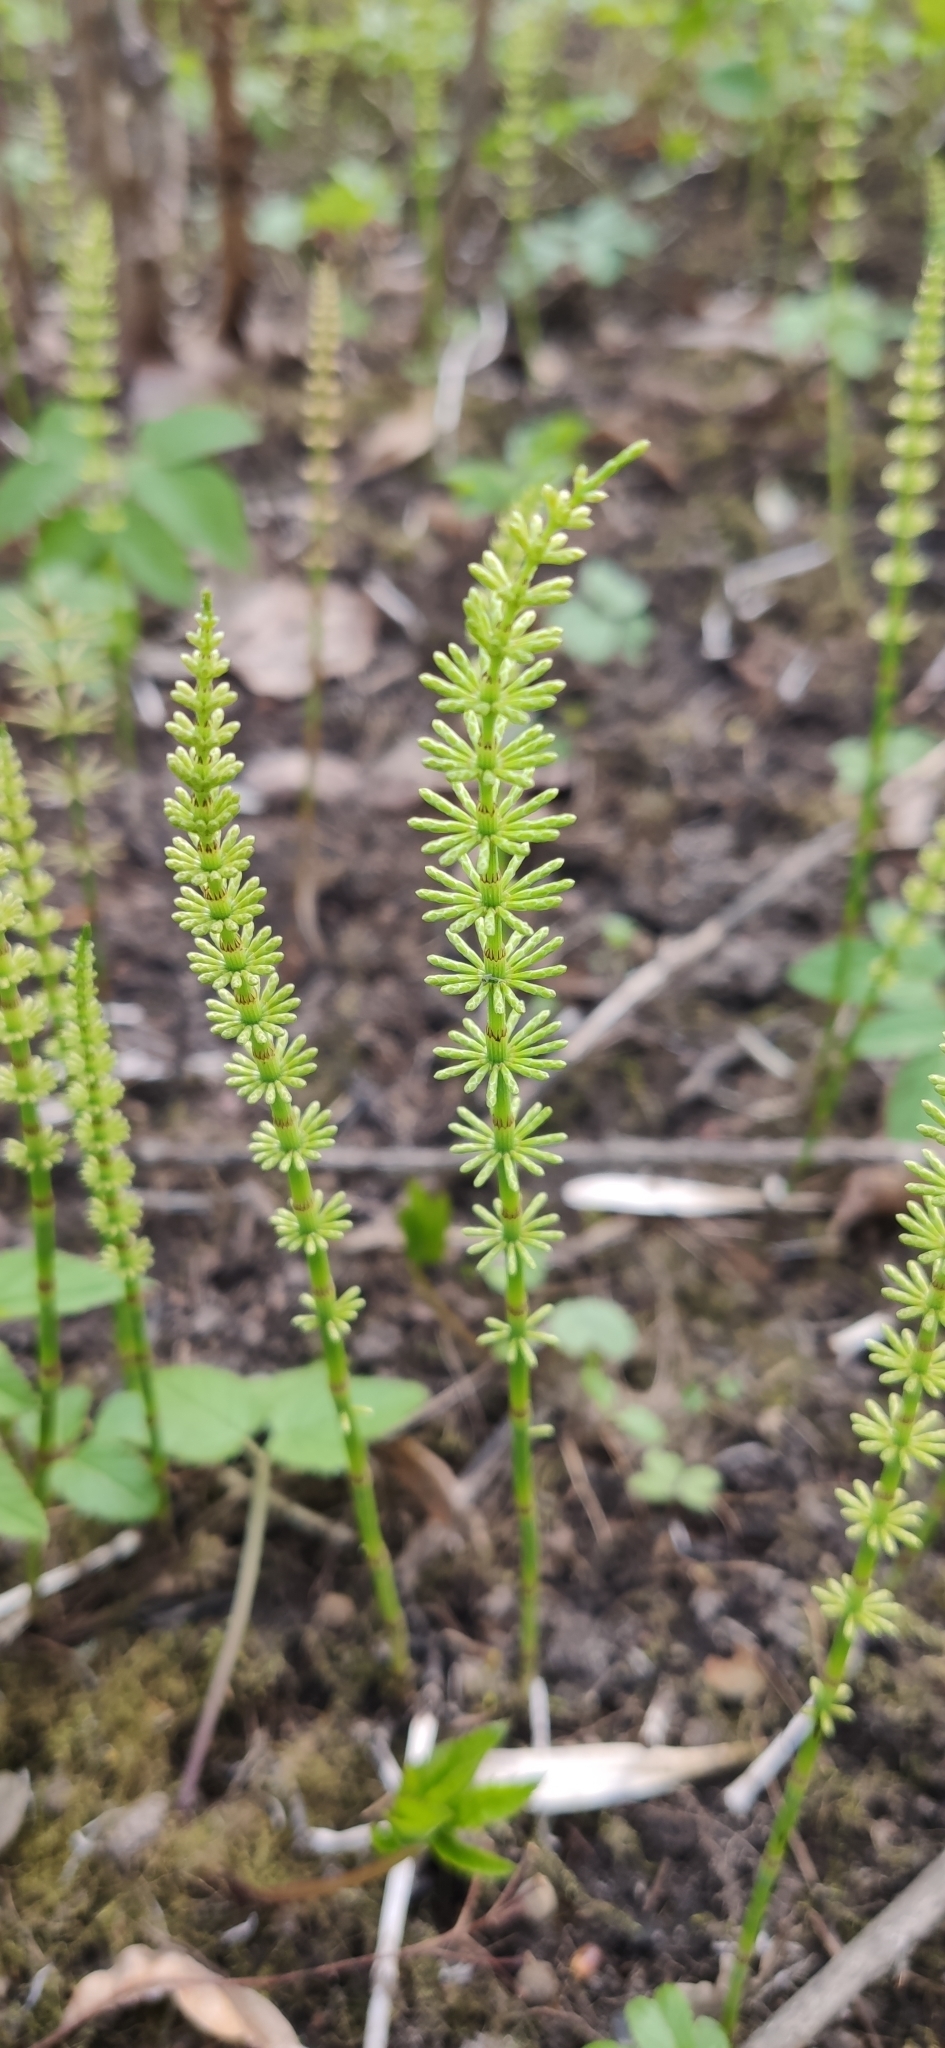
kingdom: Plantae
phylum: Tracheophyta
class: Polypodiopsida
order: Equisetales
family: Equisetaceae
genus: Equisetum
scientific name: Equisetum pratense
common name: Meadow horsetail
